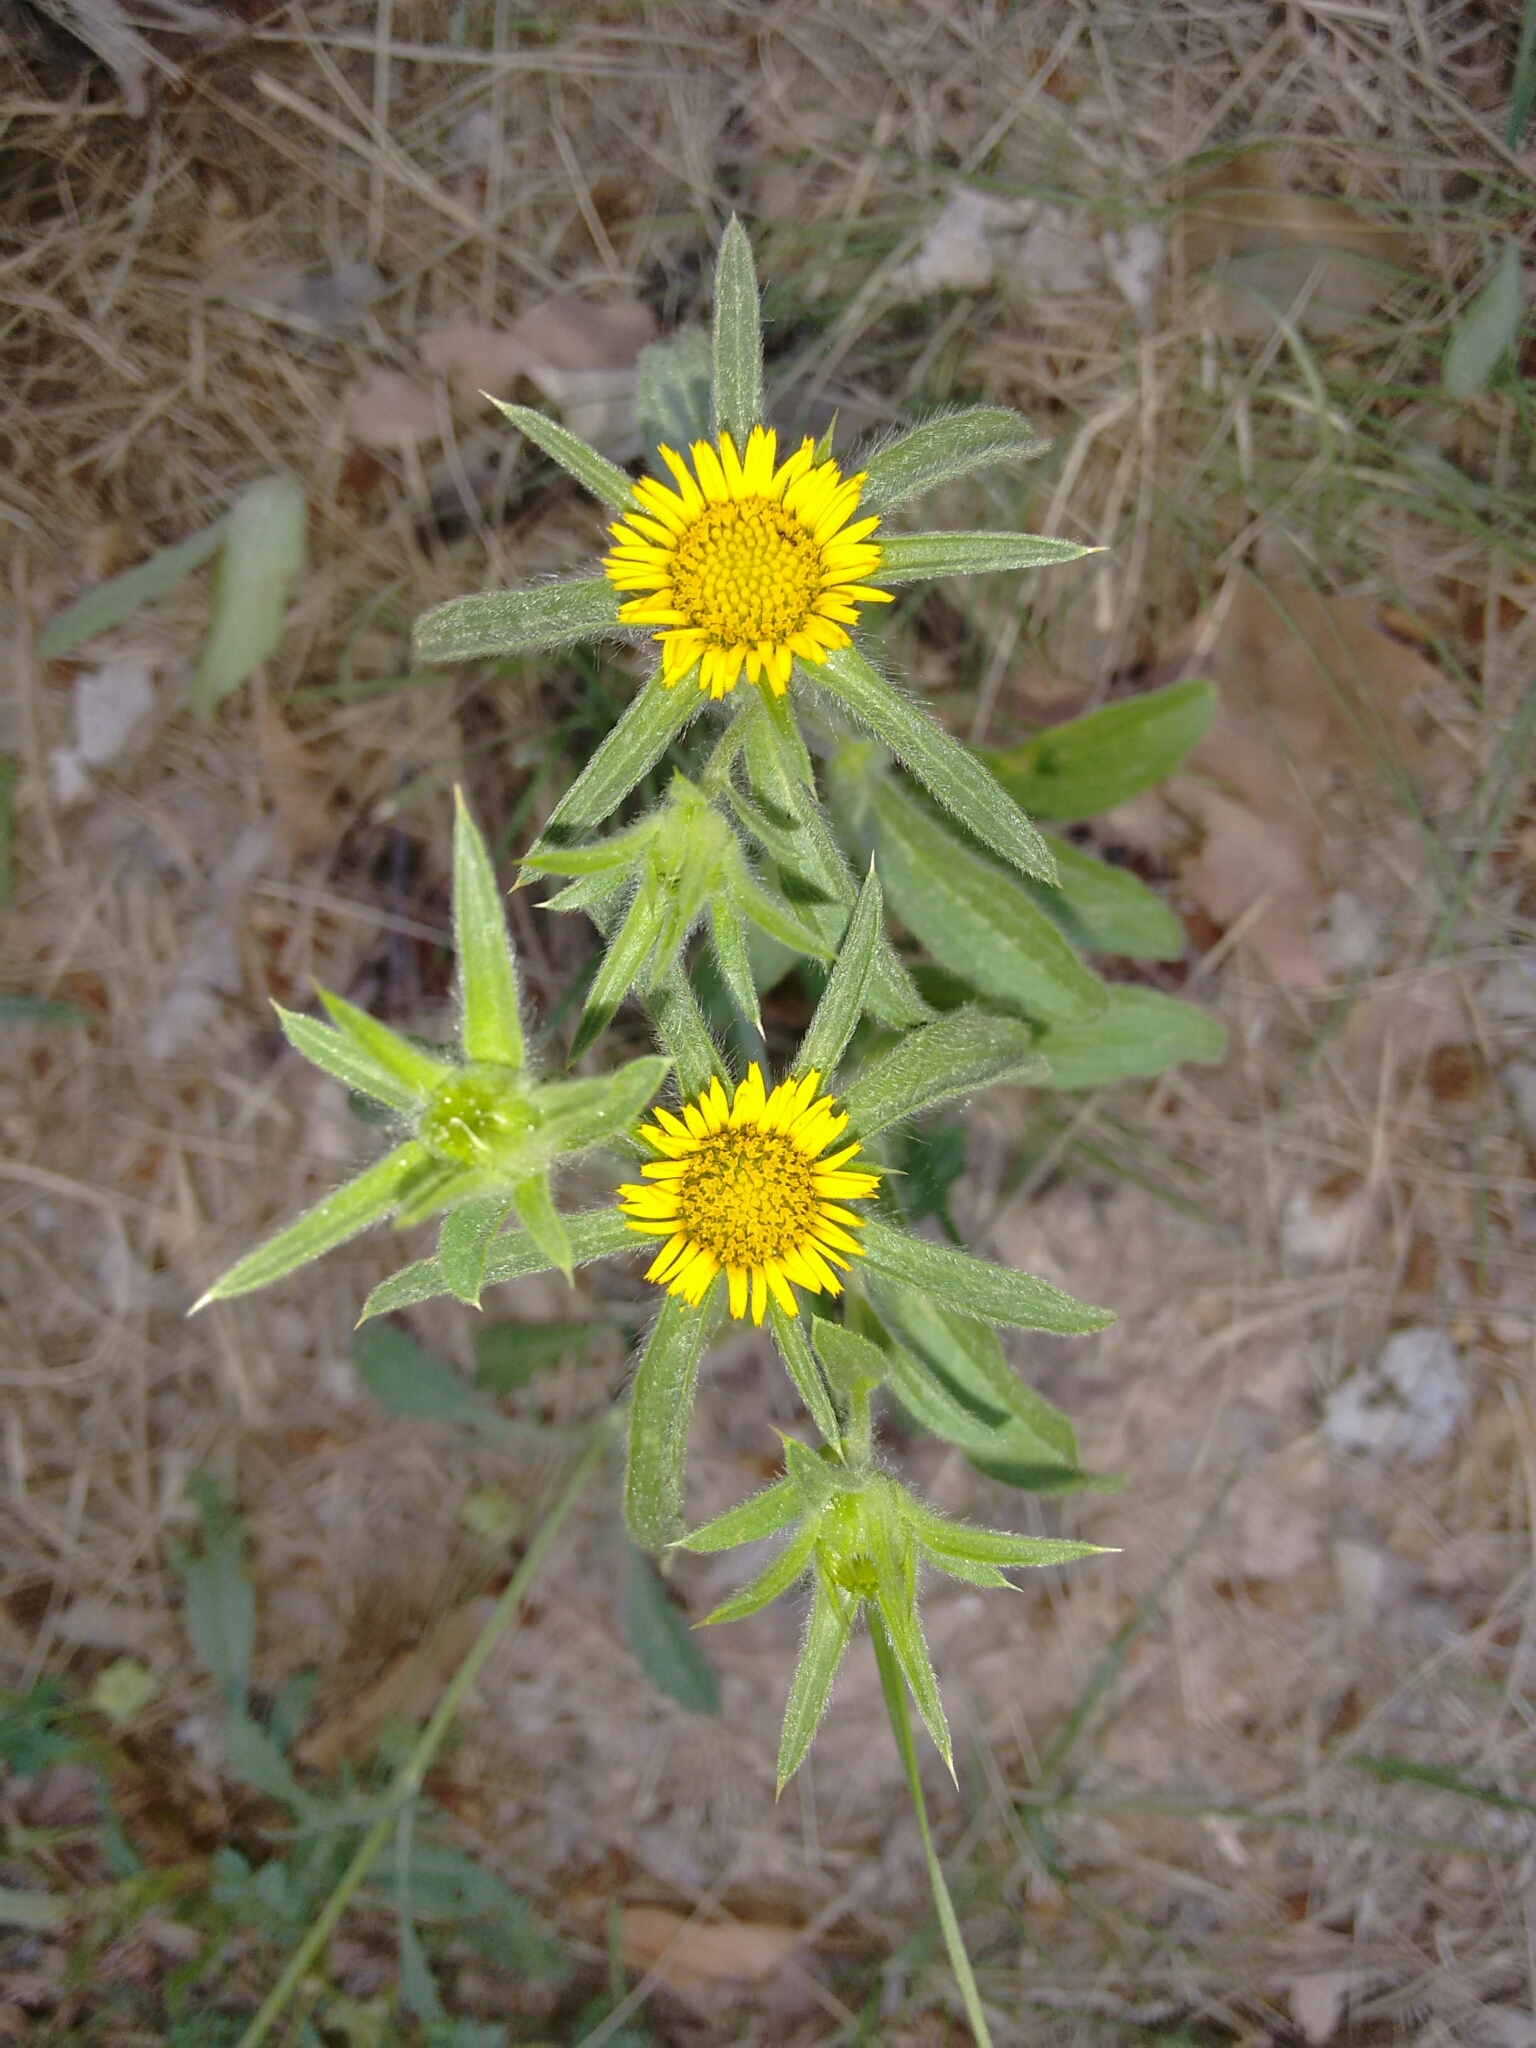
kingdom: Plantae
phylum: Tracheophyta
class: Magnoliopsida
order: Asterales
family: Asteraceae
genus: Pallenis
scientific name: Pallenis spinosa
